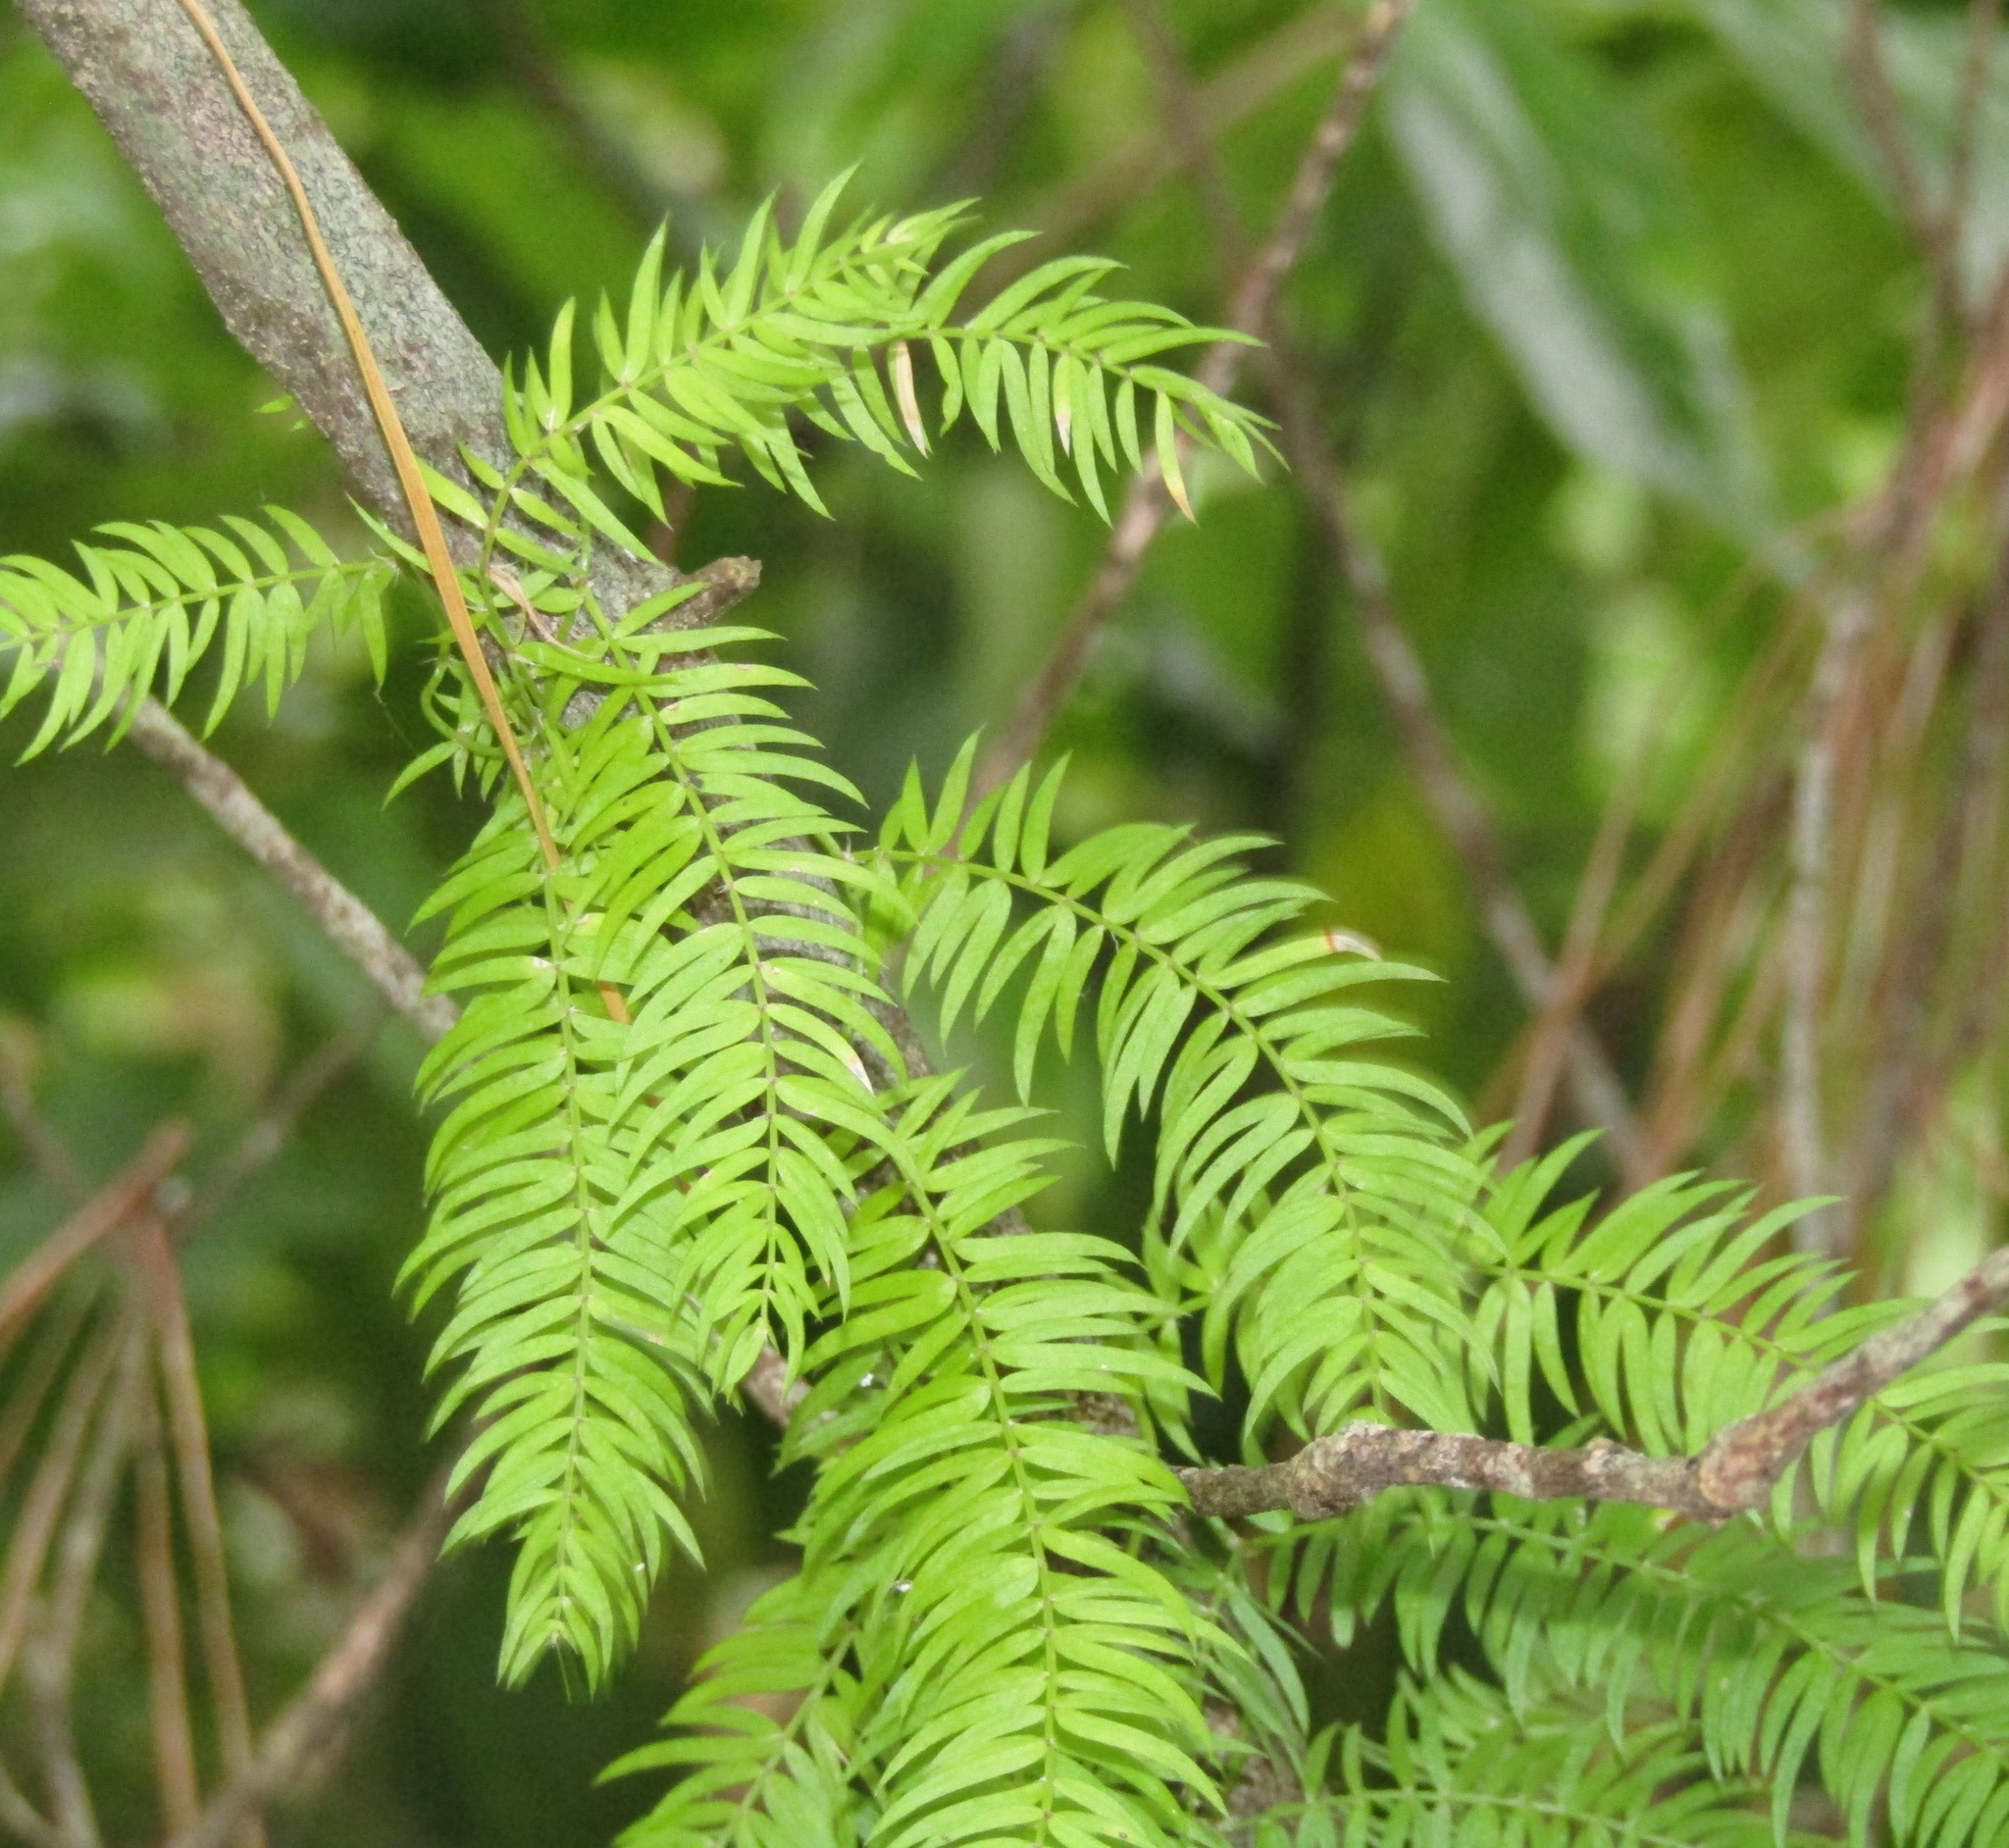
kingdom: Plantae
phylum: Tracheophyta
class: Liliopsida
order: Asparagales
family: Asparagaceae
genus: Asparagus
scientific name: Asparagus scandens
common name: Asparagus-fern
